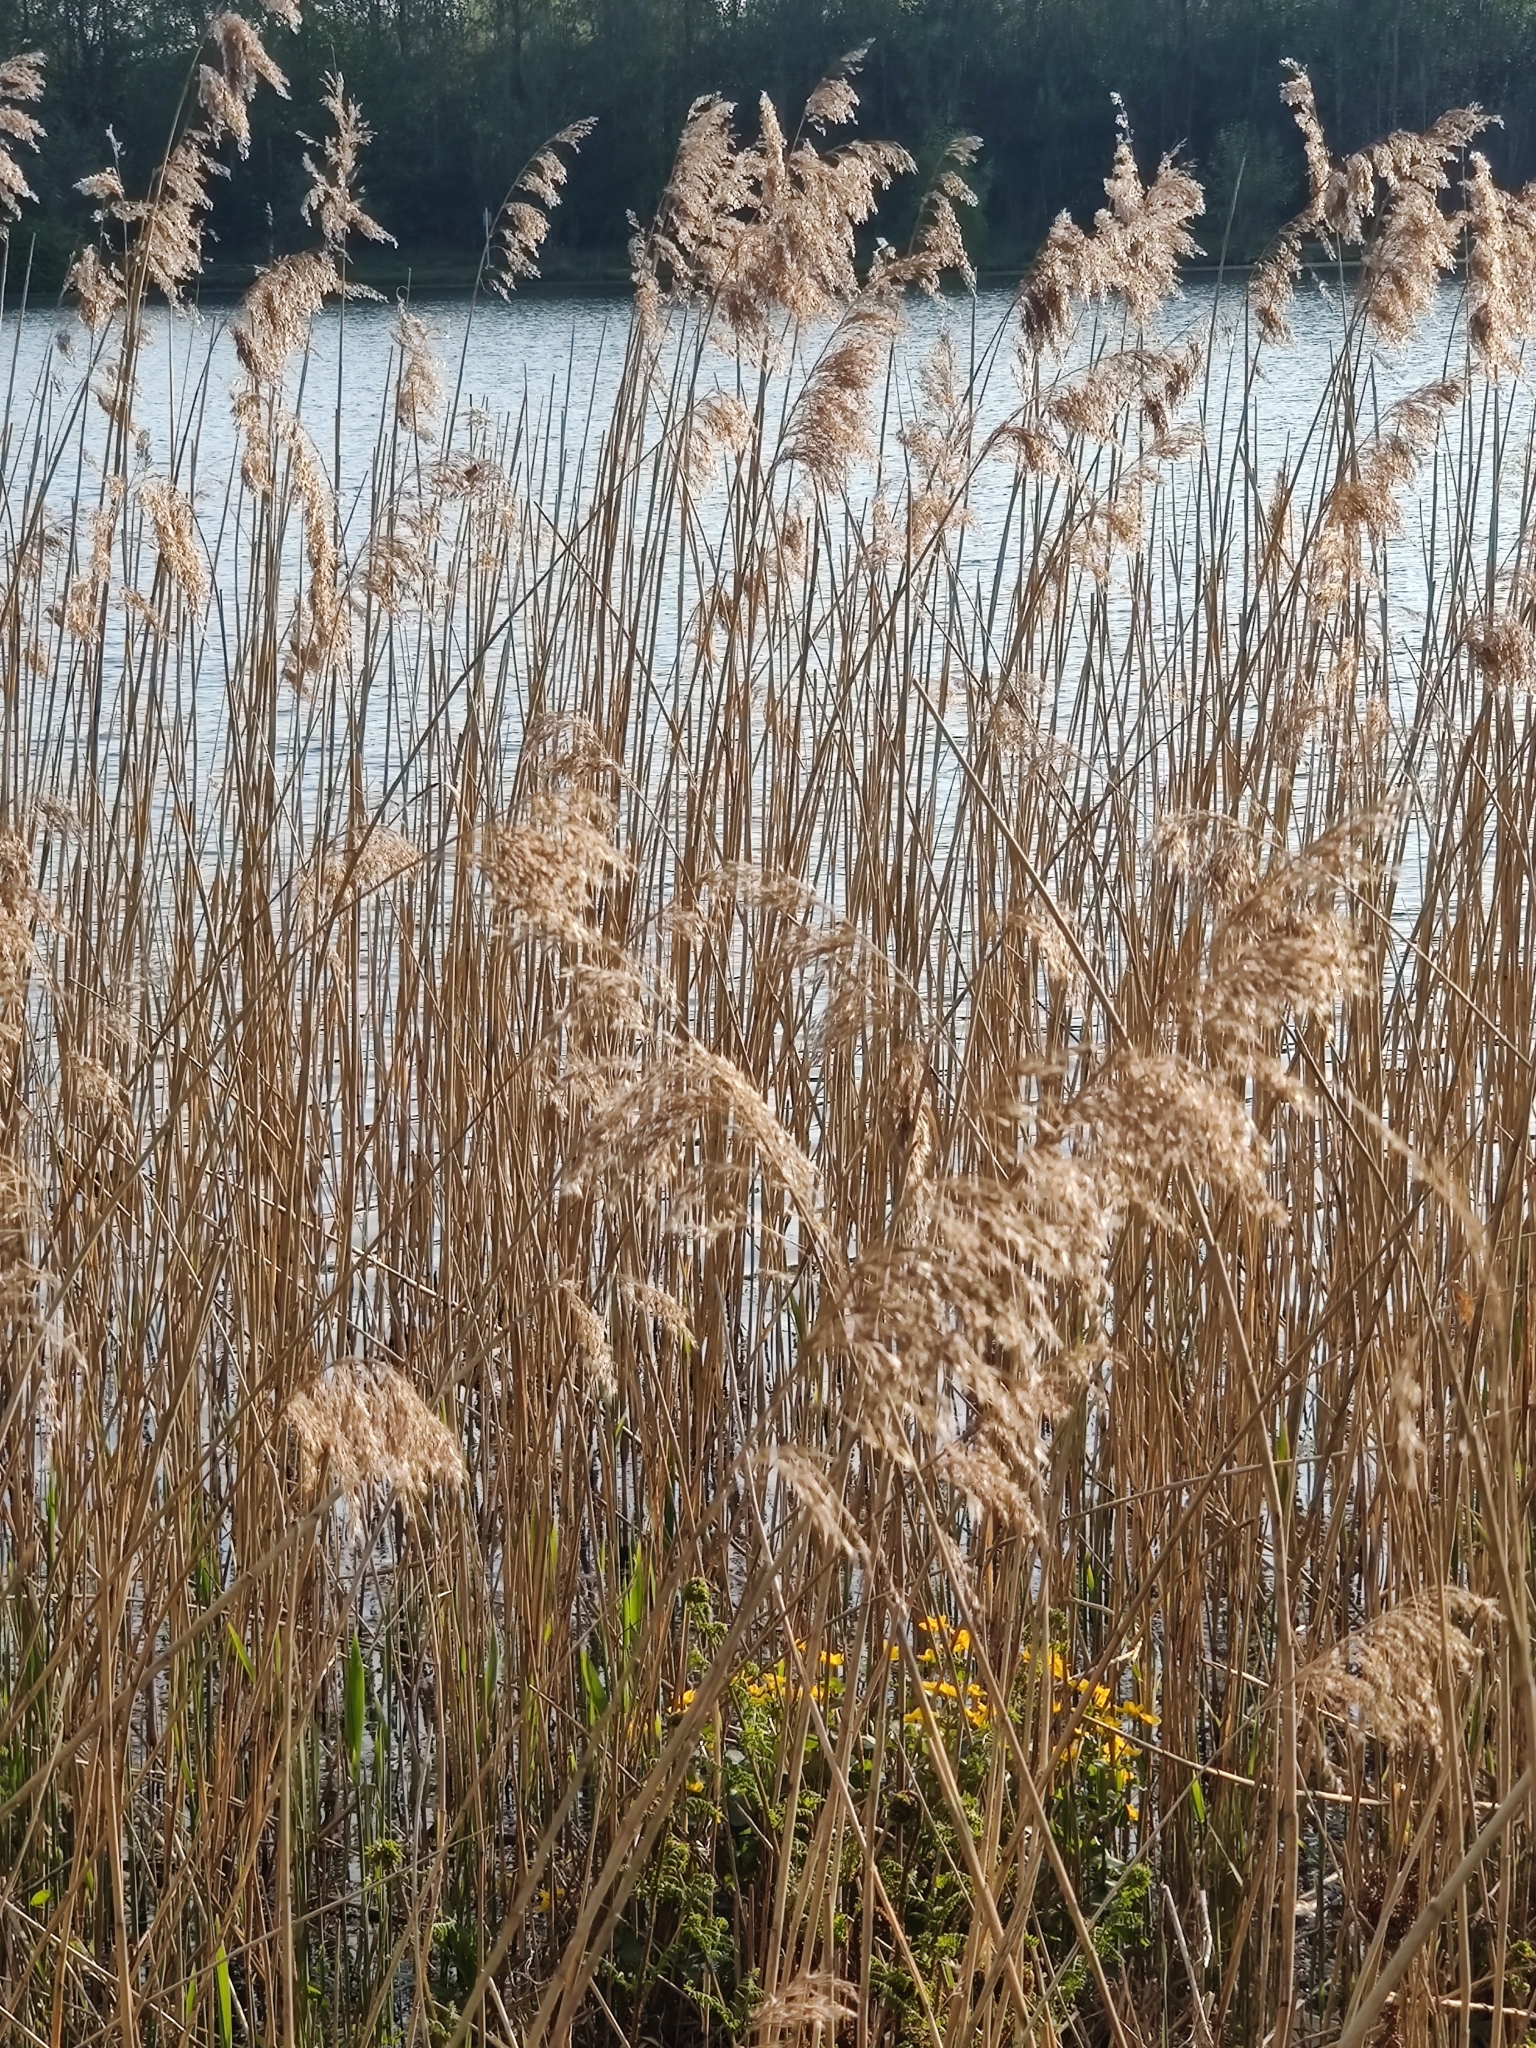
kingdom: Plantae
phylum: Tracheophyta
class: Liliopsida
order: Poales
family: Poaceae
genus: Phragmites
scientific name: Phragmites australis
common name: Common reed
